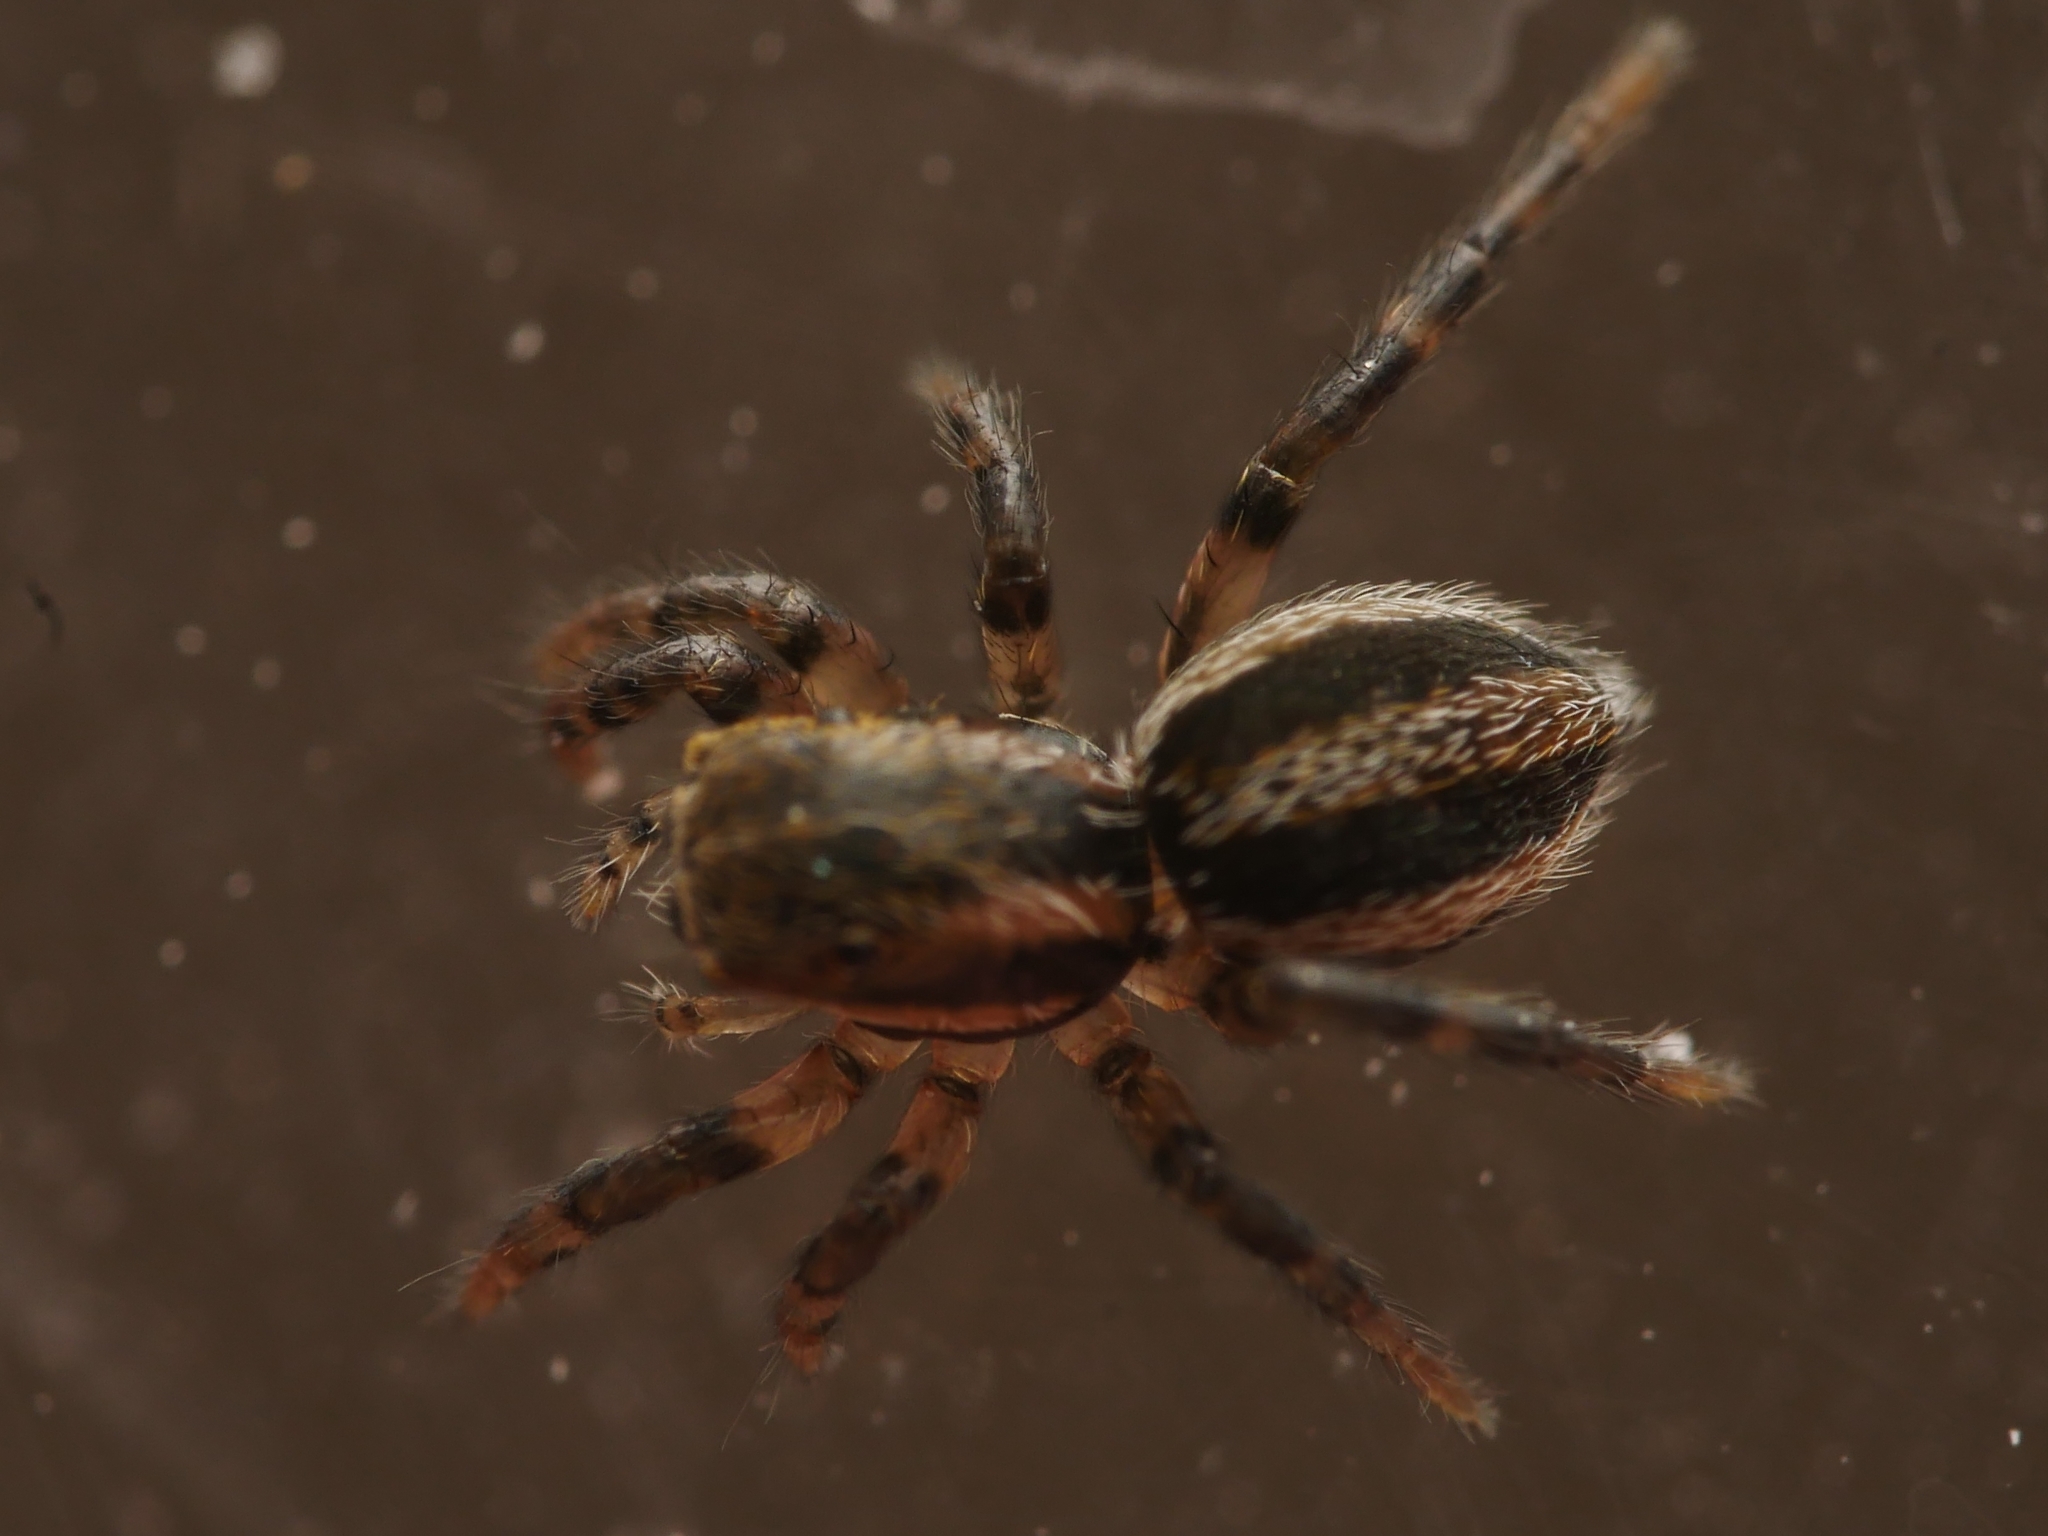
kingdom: Animalia
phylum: Arthropoda
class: Arachnida
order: Araneae
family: Salticidae
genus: Phlegra
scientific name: Phlegra fasciata
